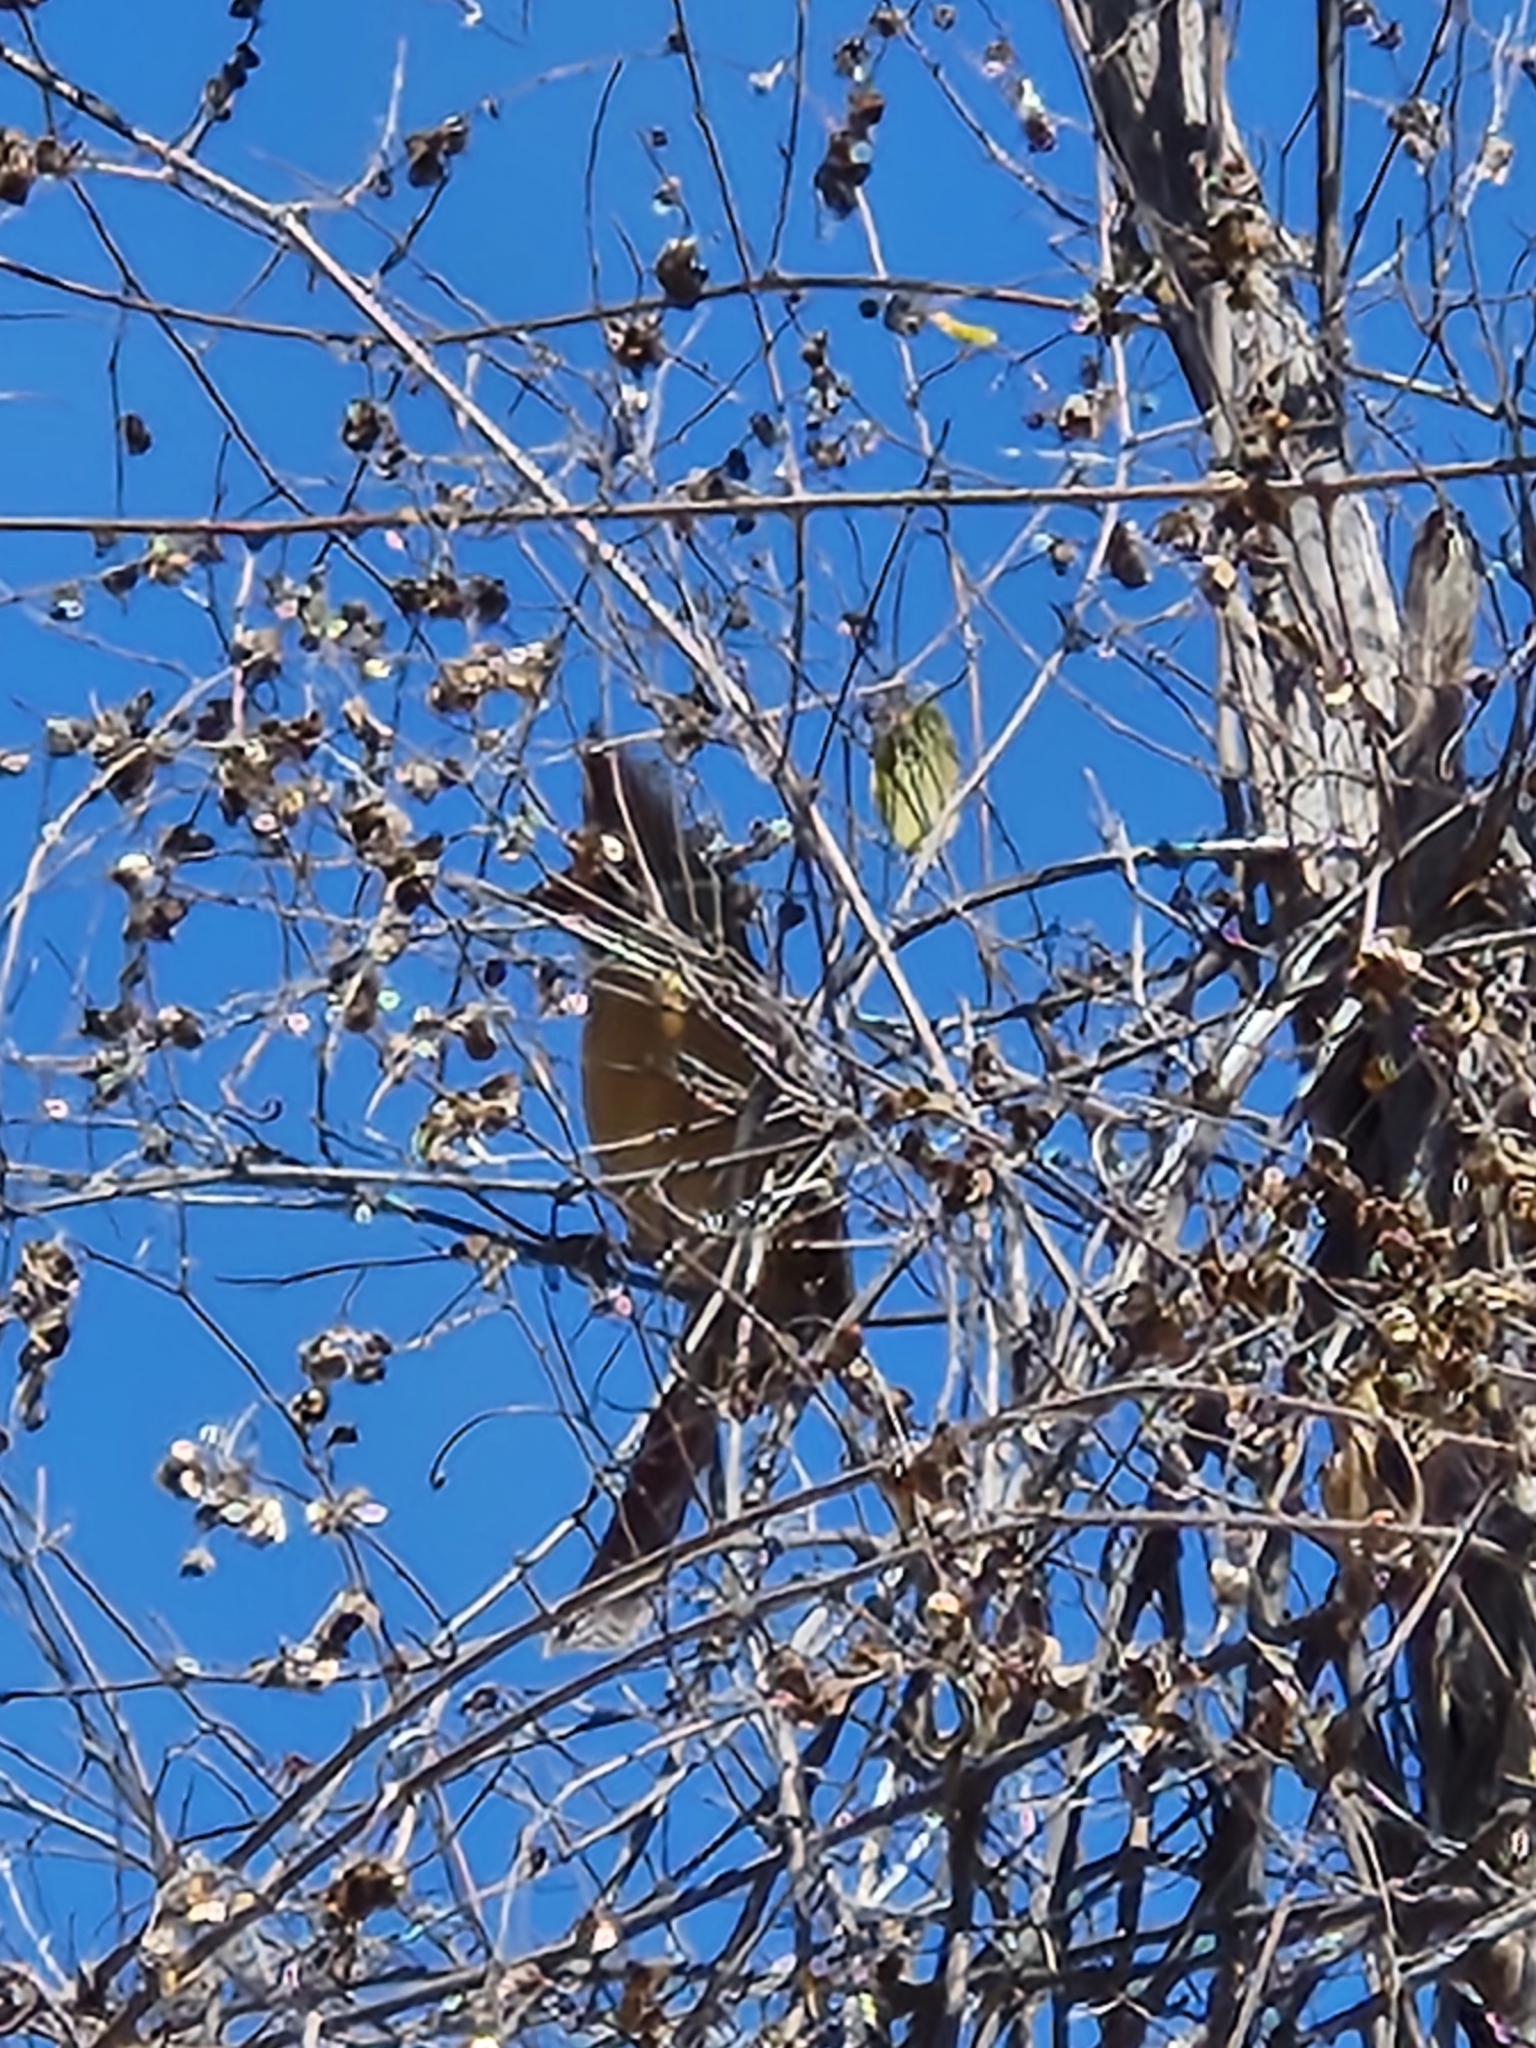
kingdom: Animalia
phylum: Chordata
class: Aves
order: Passeriformes
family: Cardinalidae
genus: Cardinalis
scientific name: Cardinalis cardinalis
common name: Northern cardinal
